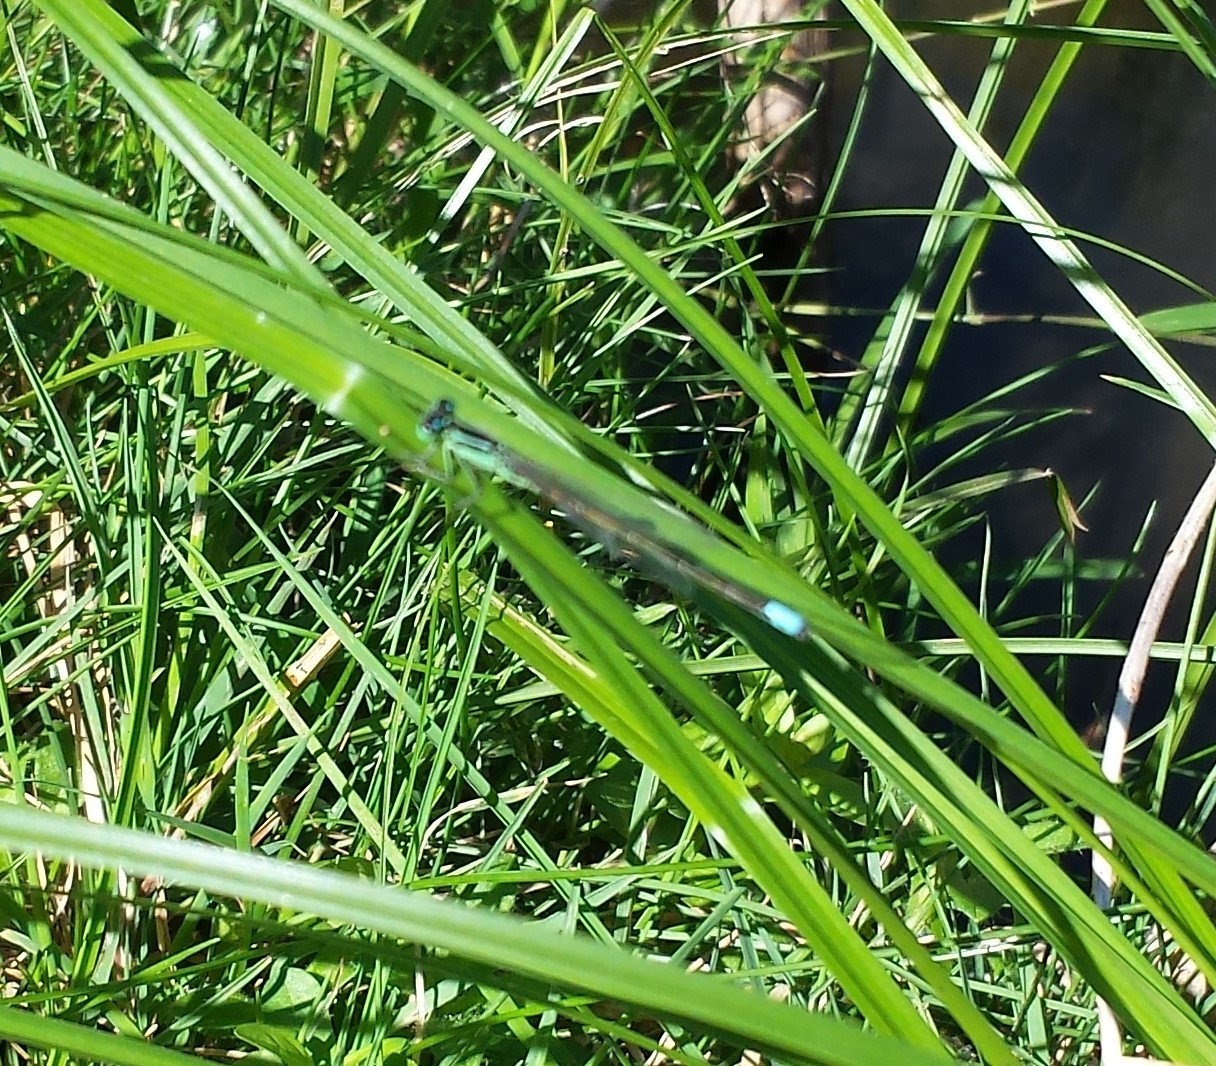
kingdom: Animalia
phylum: Arthropoda
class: Insecta
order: Odonata
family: Coenagrionidae
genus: Ischnura
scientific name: Ischnura verticalis
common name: Eastern forktail
